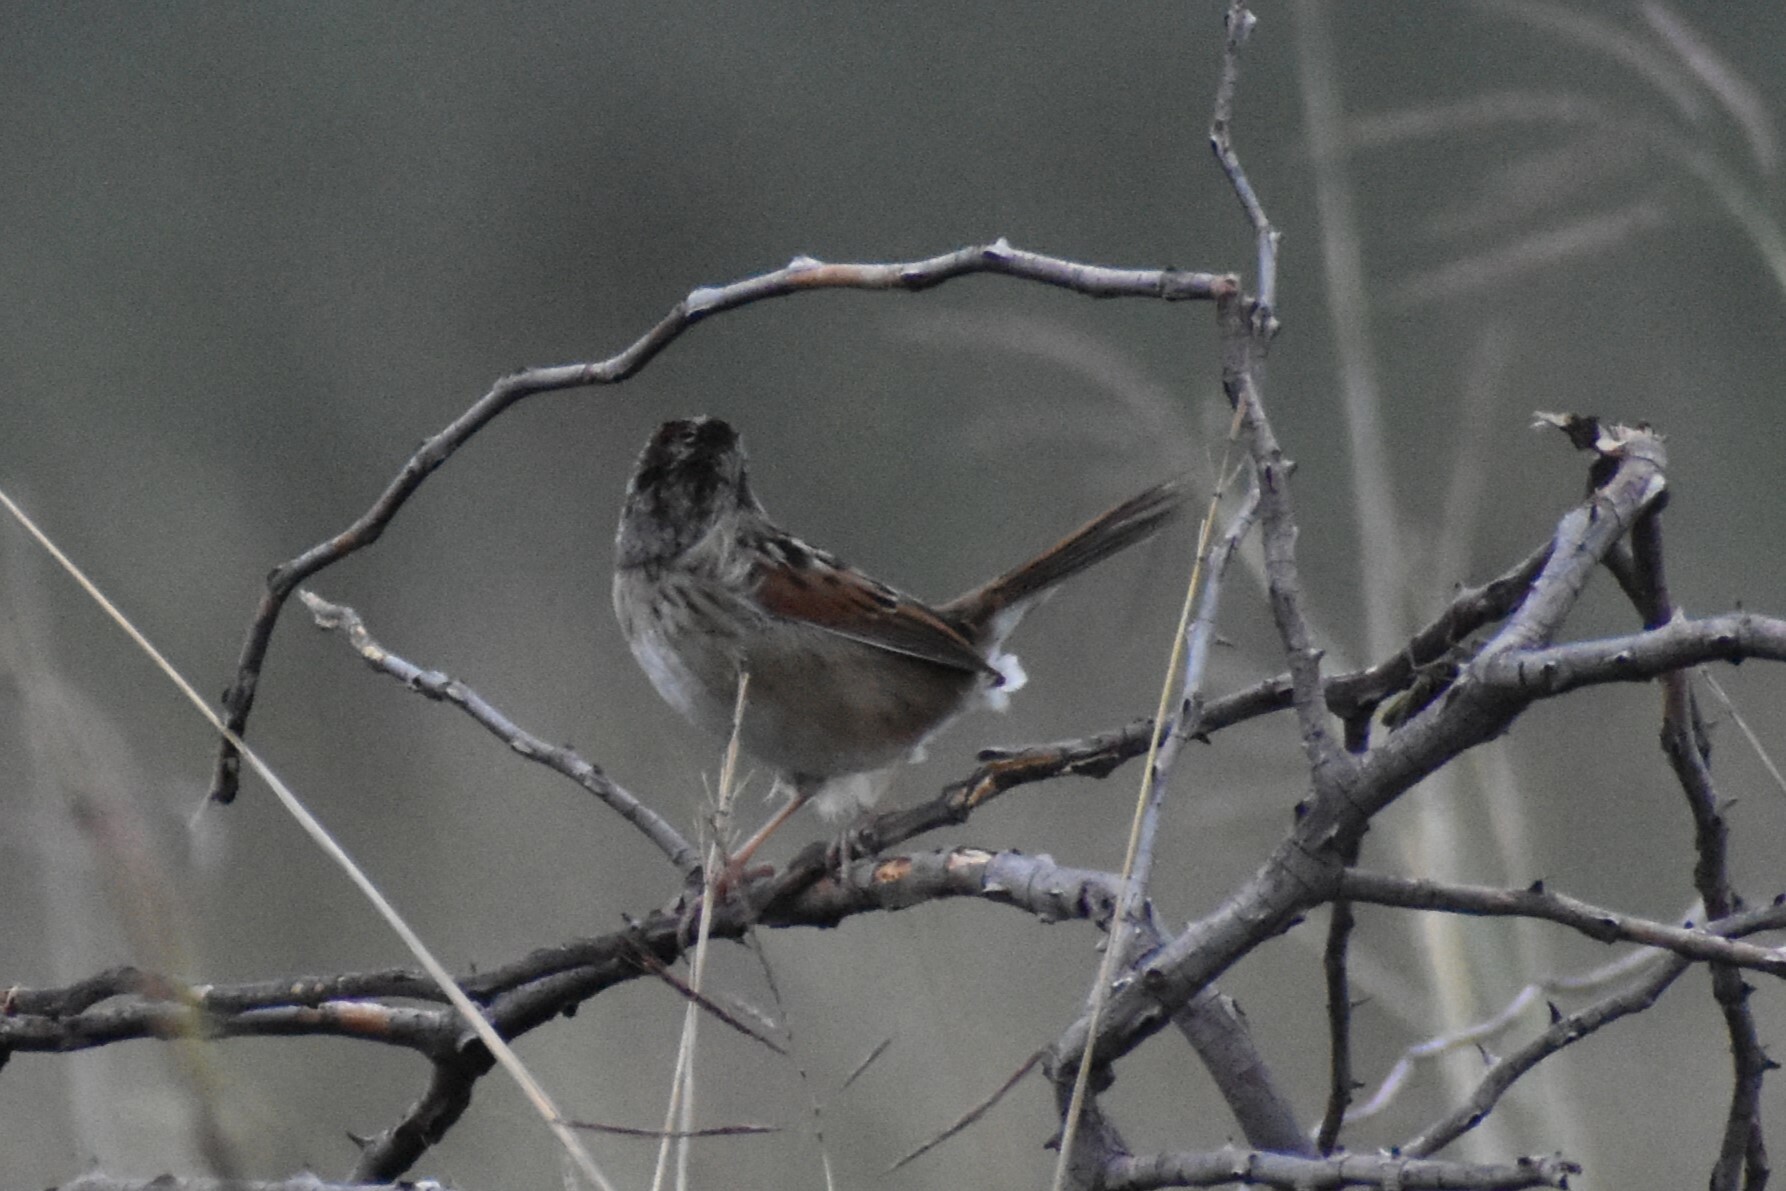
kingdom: Animalia
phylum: Chordata
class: Aves
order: Passeriformes
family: Passerellidae
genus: Melospiza
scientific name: Melospiza georgiana
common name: Swamp sparrow
